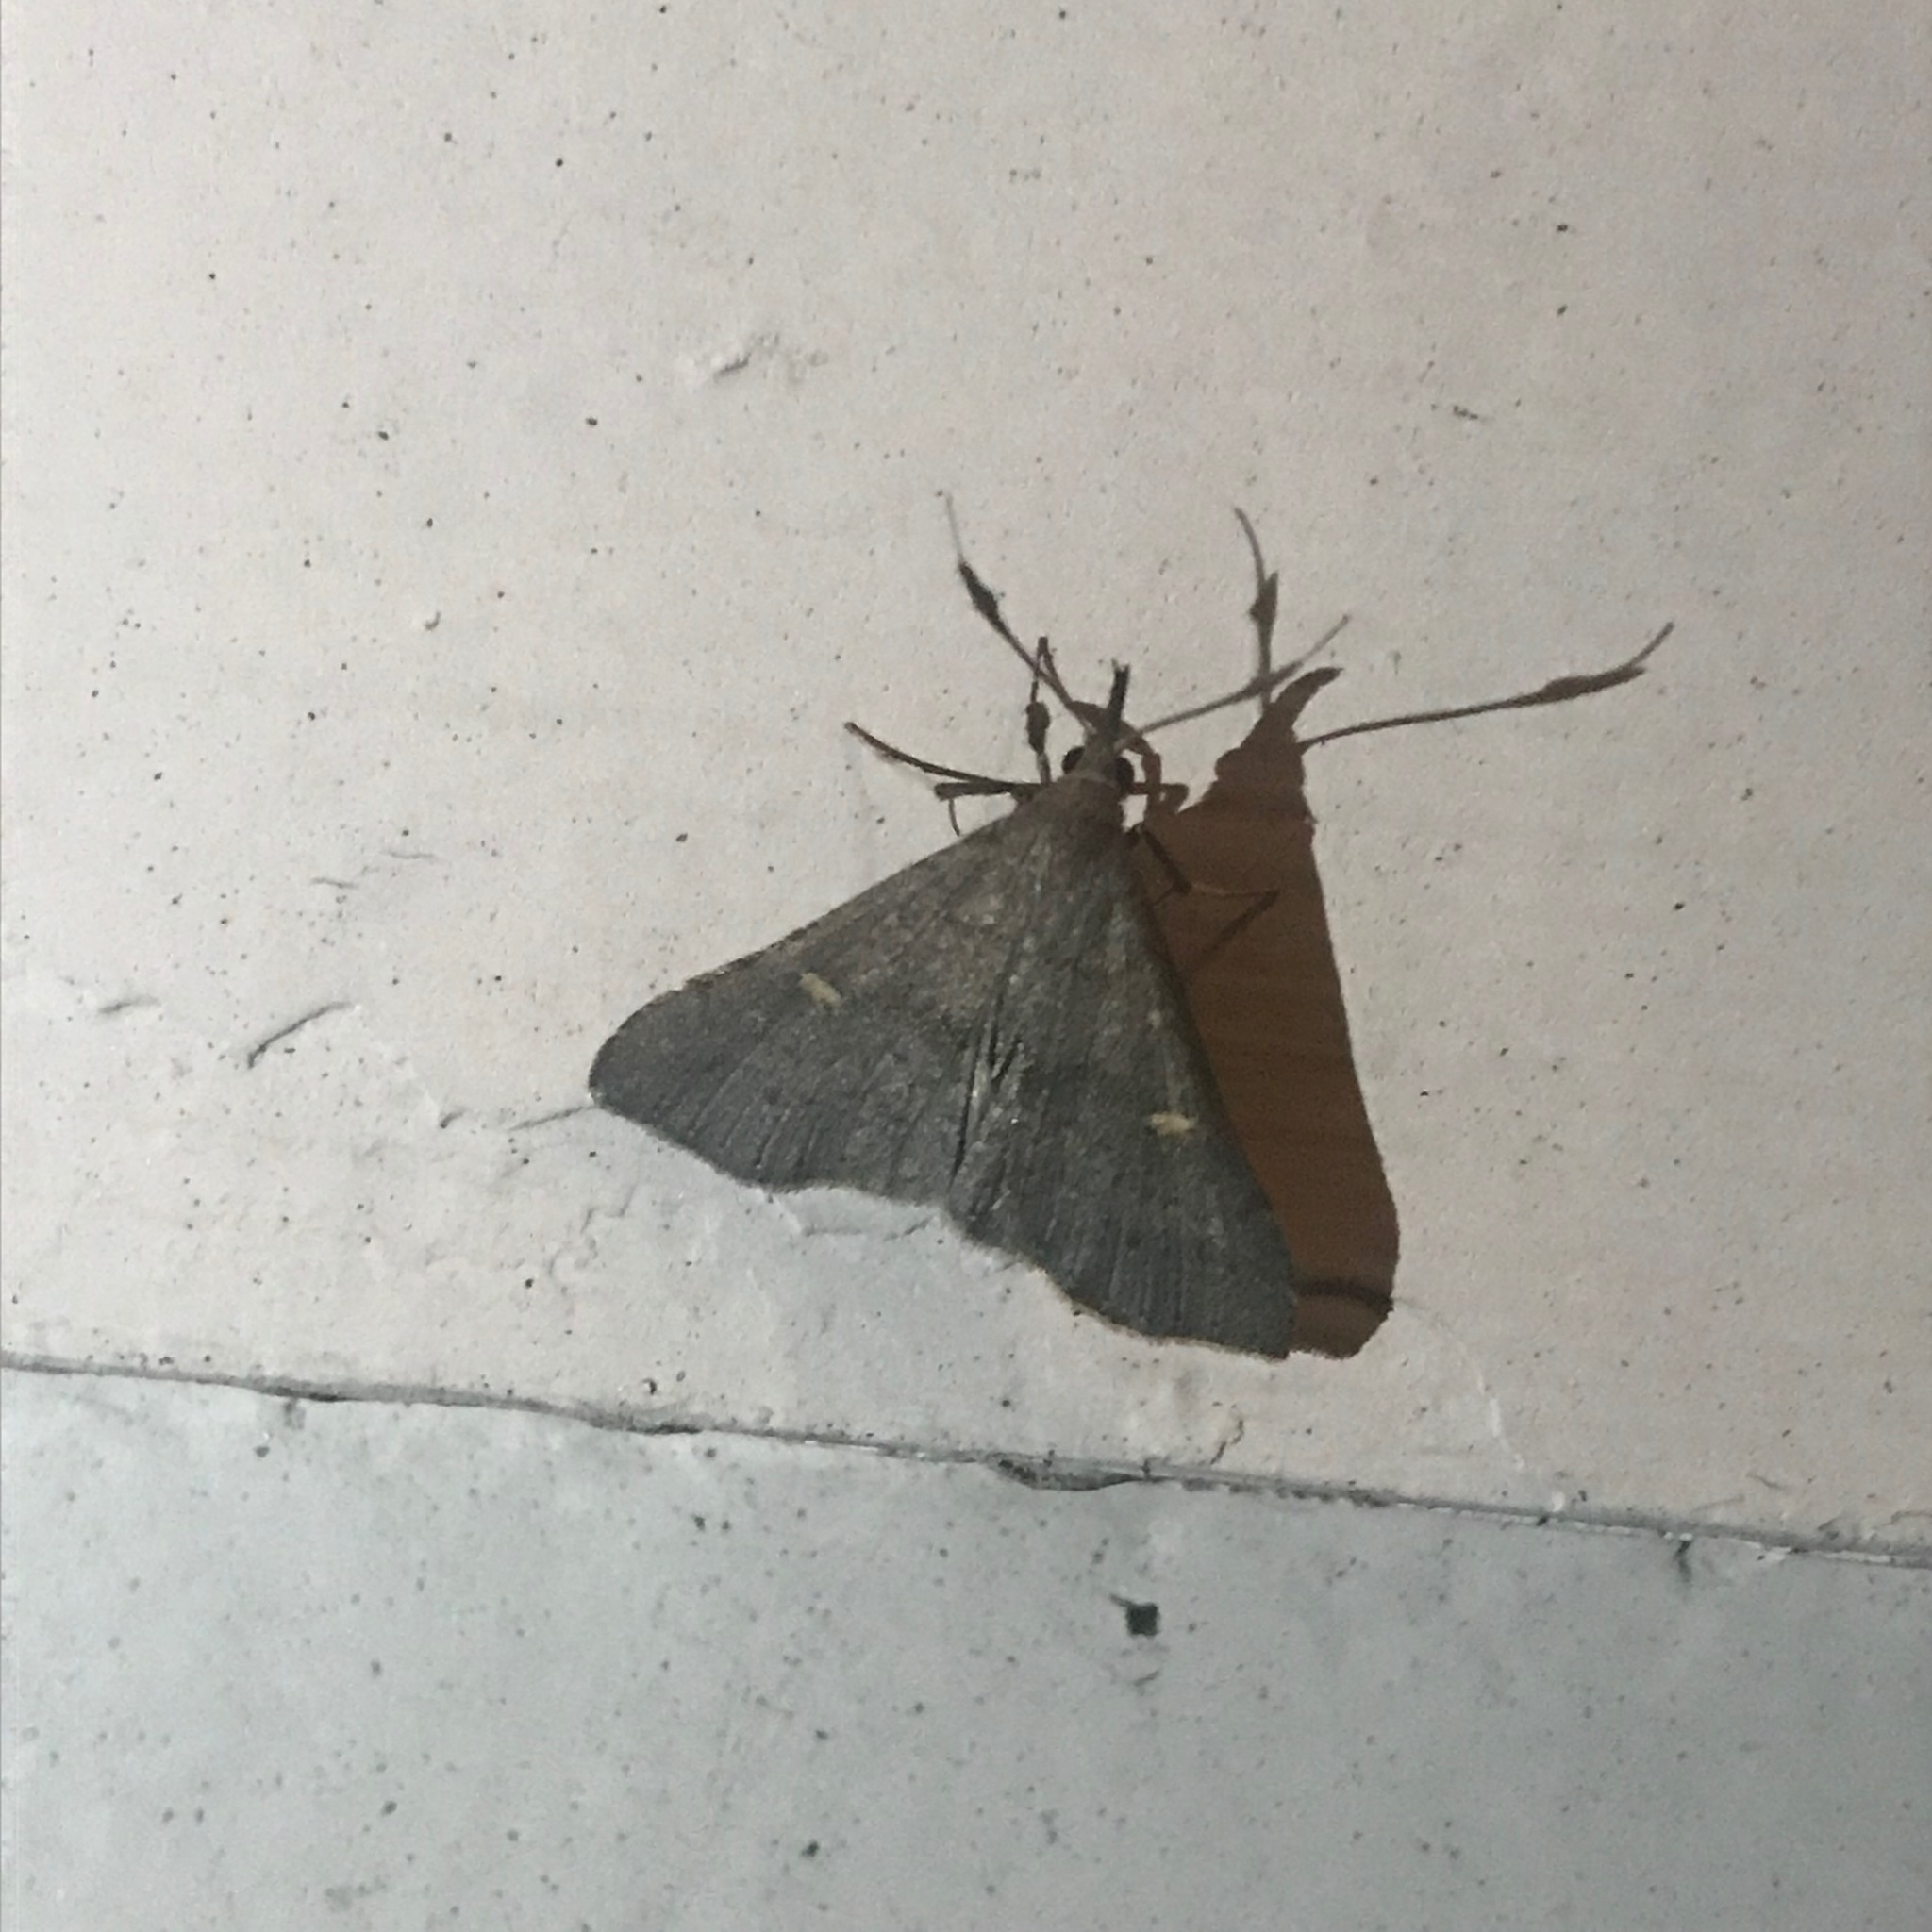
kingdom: Animalia
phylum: Arthropoda
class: Insecta
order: Lepidoptera
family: Erebidae
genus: Renia
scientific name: Renia adspergillus
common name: Speckled renia moth
